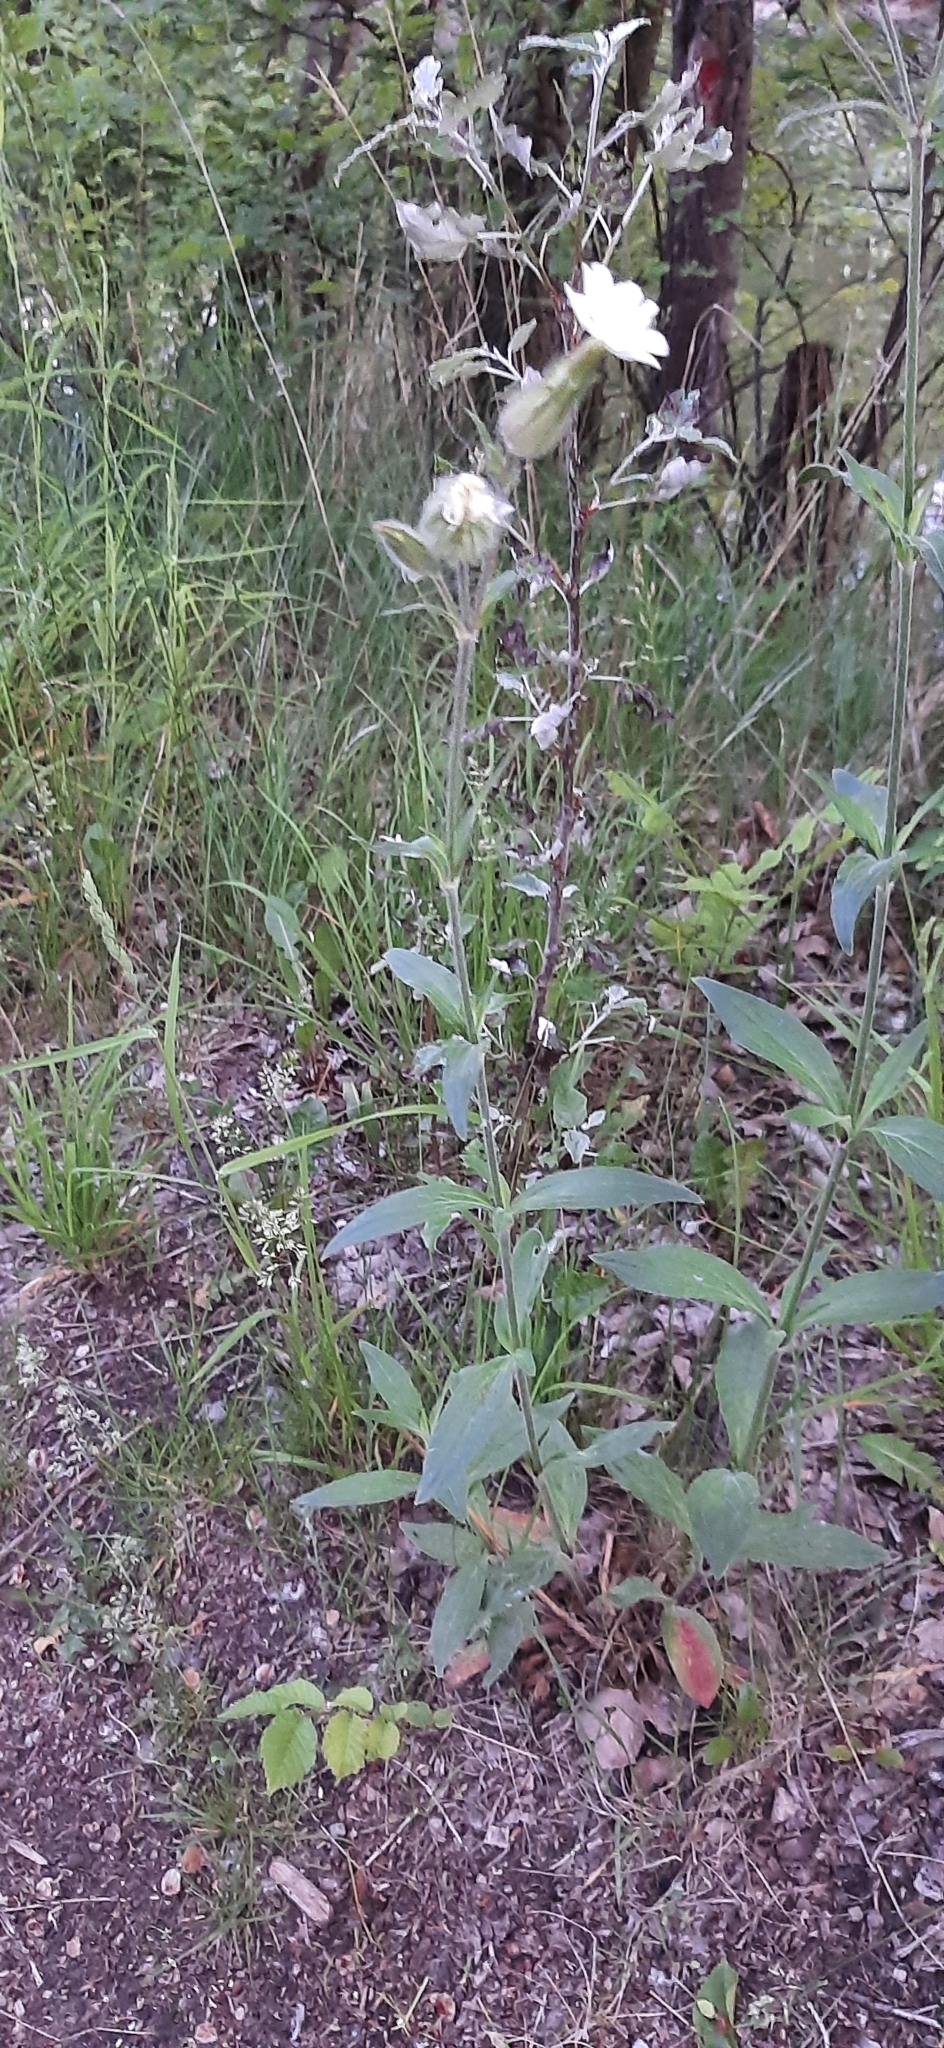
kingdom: Plantae
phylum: Tracheophyta
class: Magnoliopsida
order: Caryophyllales
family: Caryophyllaceae
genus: Silene
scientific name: Silene latifolia
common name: White campion
